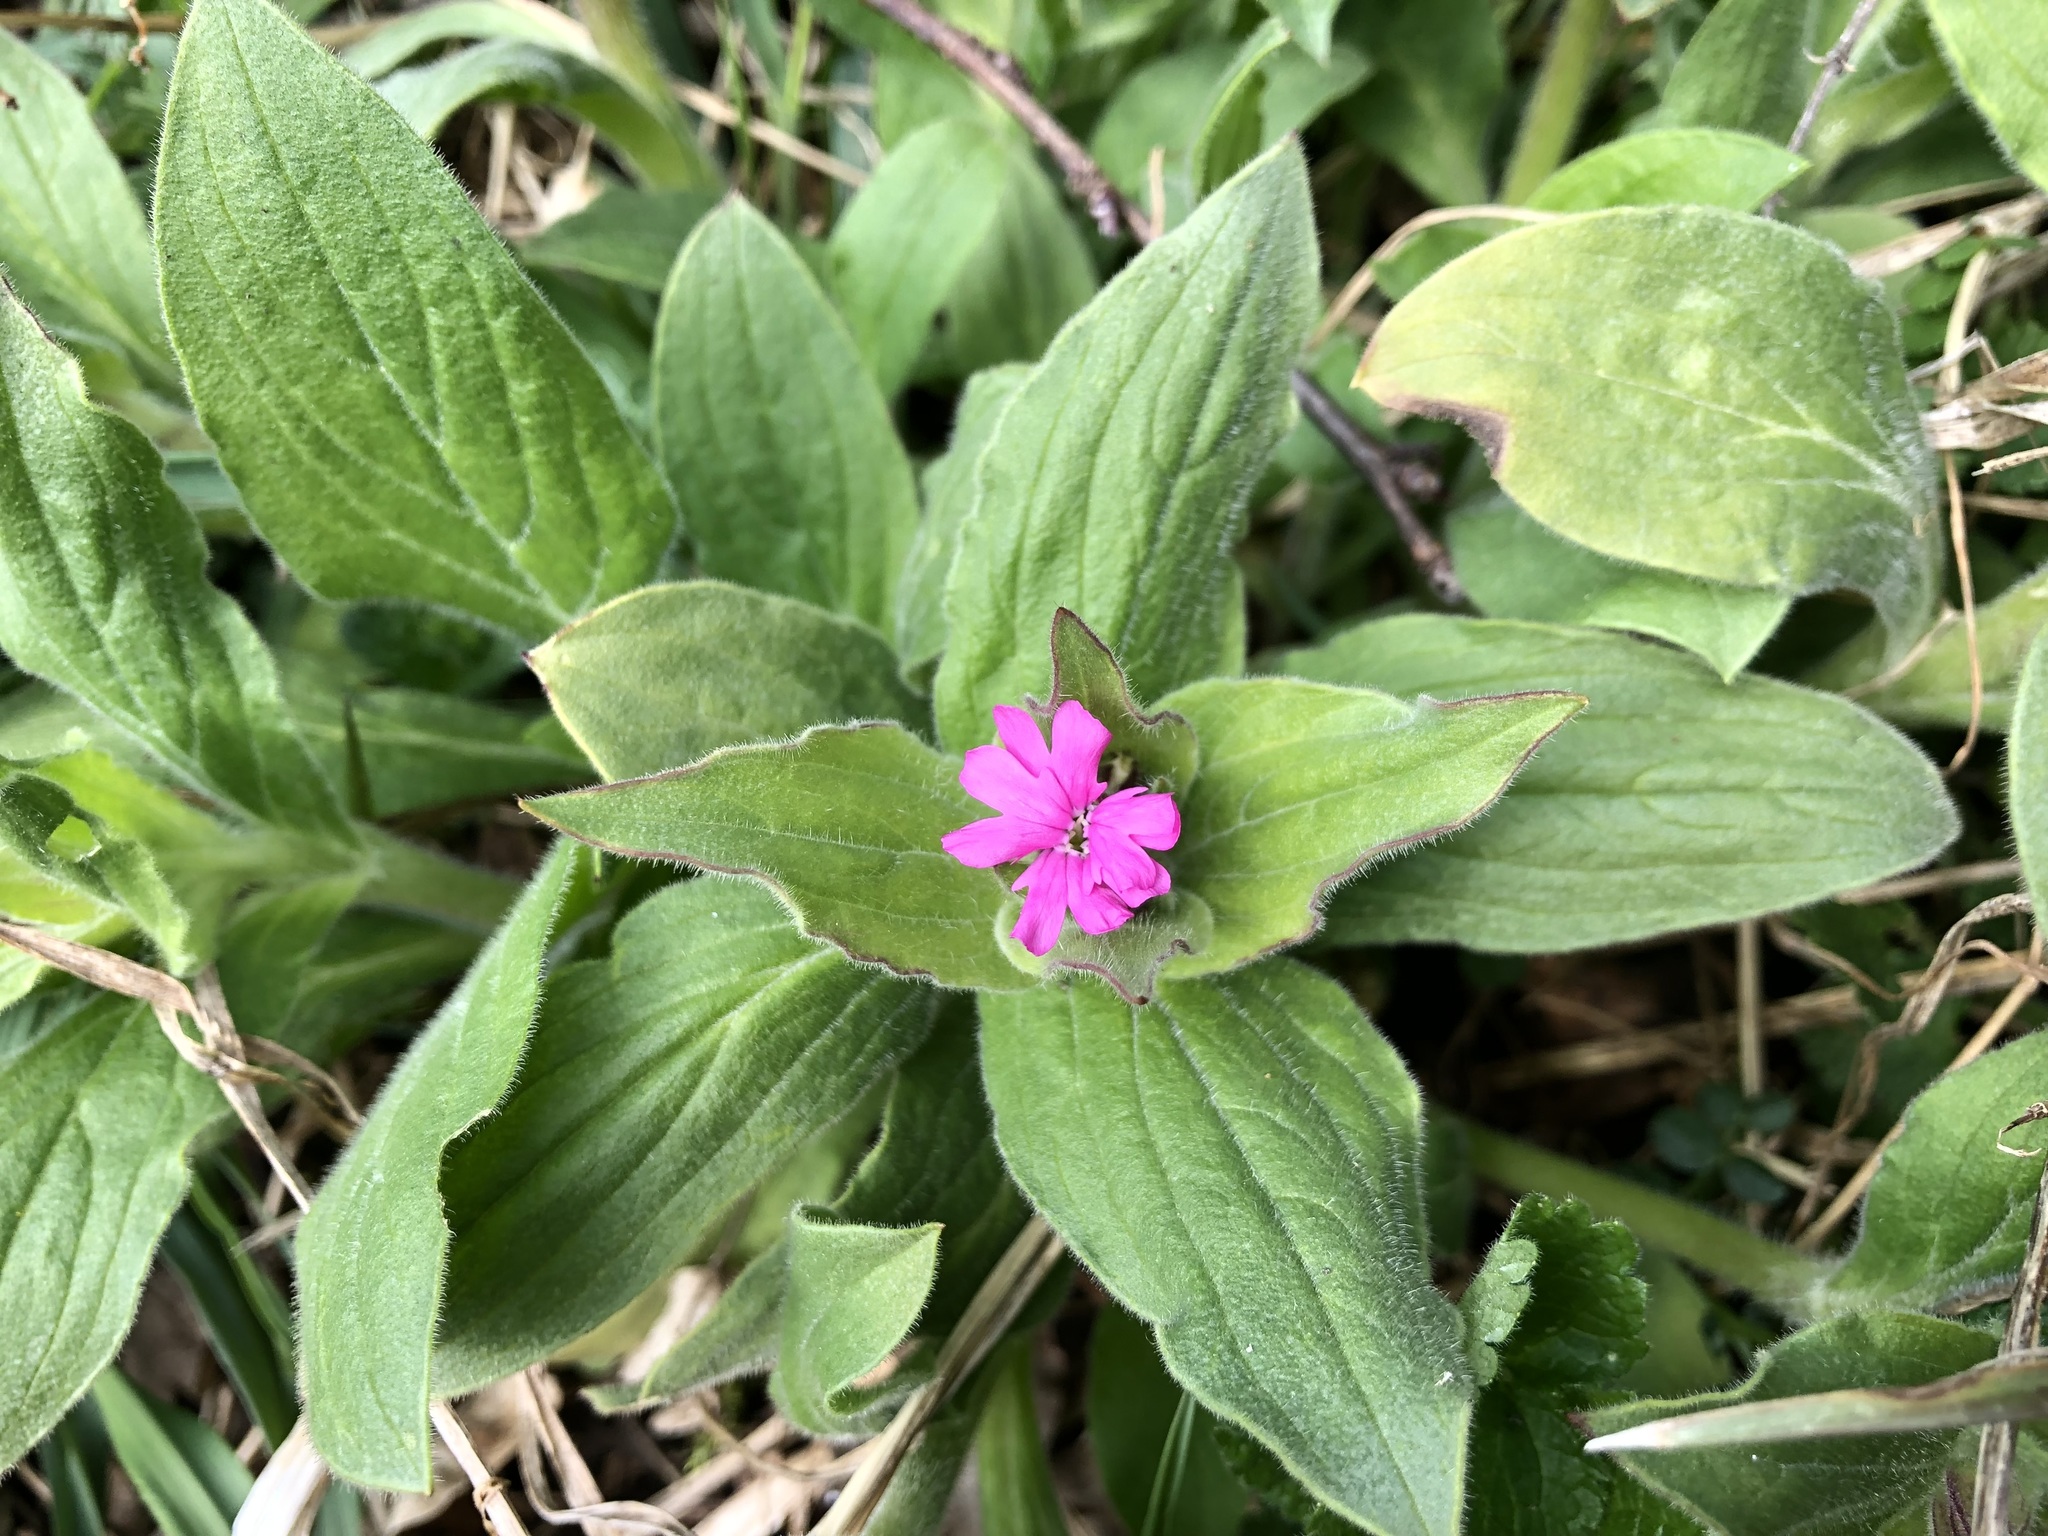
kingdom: Plantae
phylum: Tracheophyta
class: Magnoliopsida
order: Caryophyllales
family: Caryophyllaceae
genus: Silene
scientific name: Silene dioica
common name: Red campion
